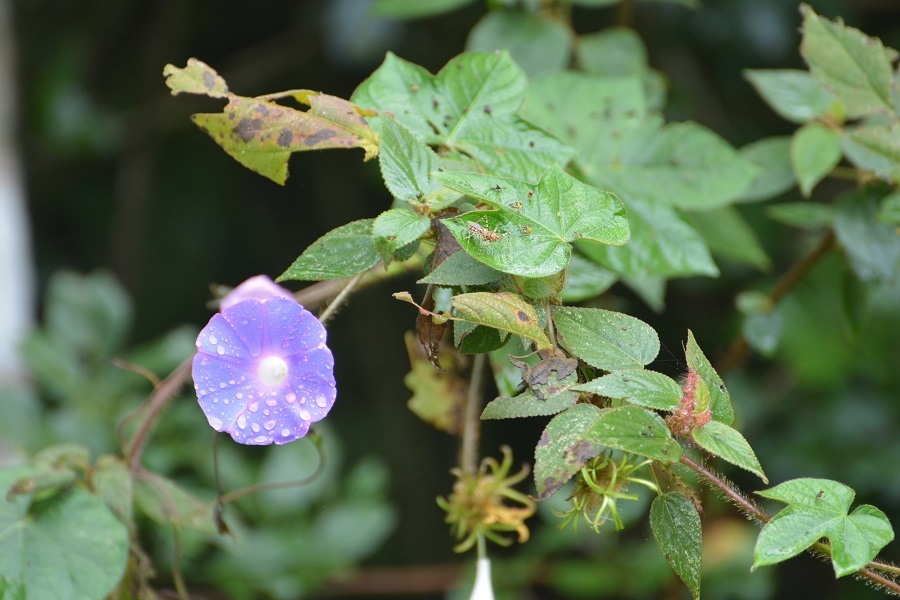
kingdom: Plantae
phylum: Tracheophyta
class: Magnoliopsida
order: Solanales
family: Convolvulaceae
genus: Ipomoea
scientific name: Ipomoea hederacea
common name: Ivy-leaved morning-glory
